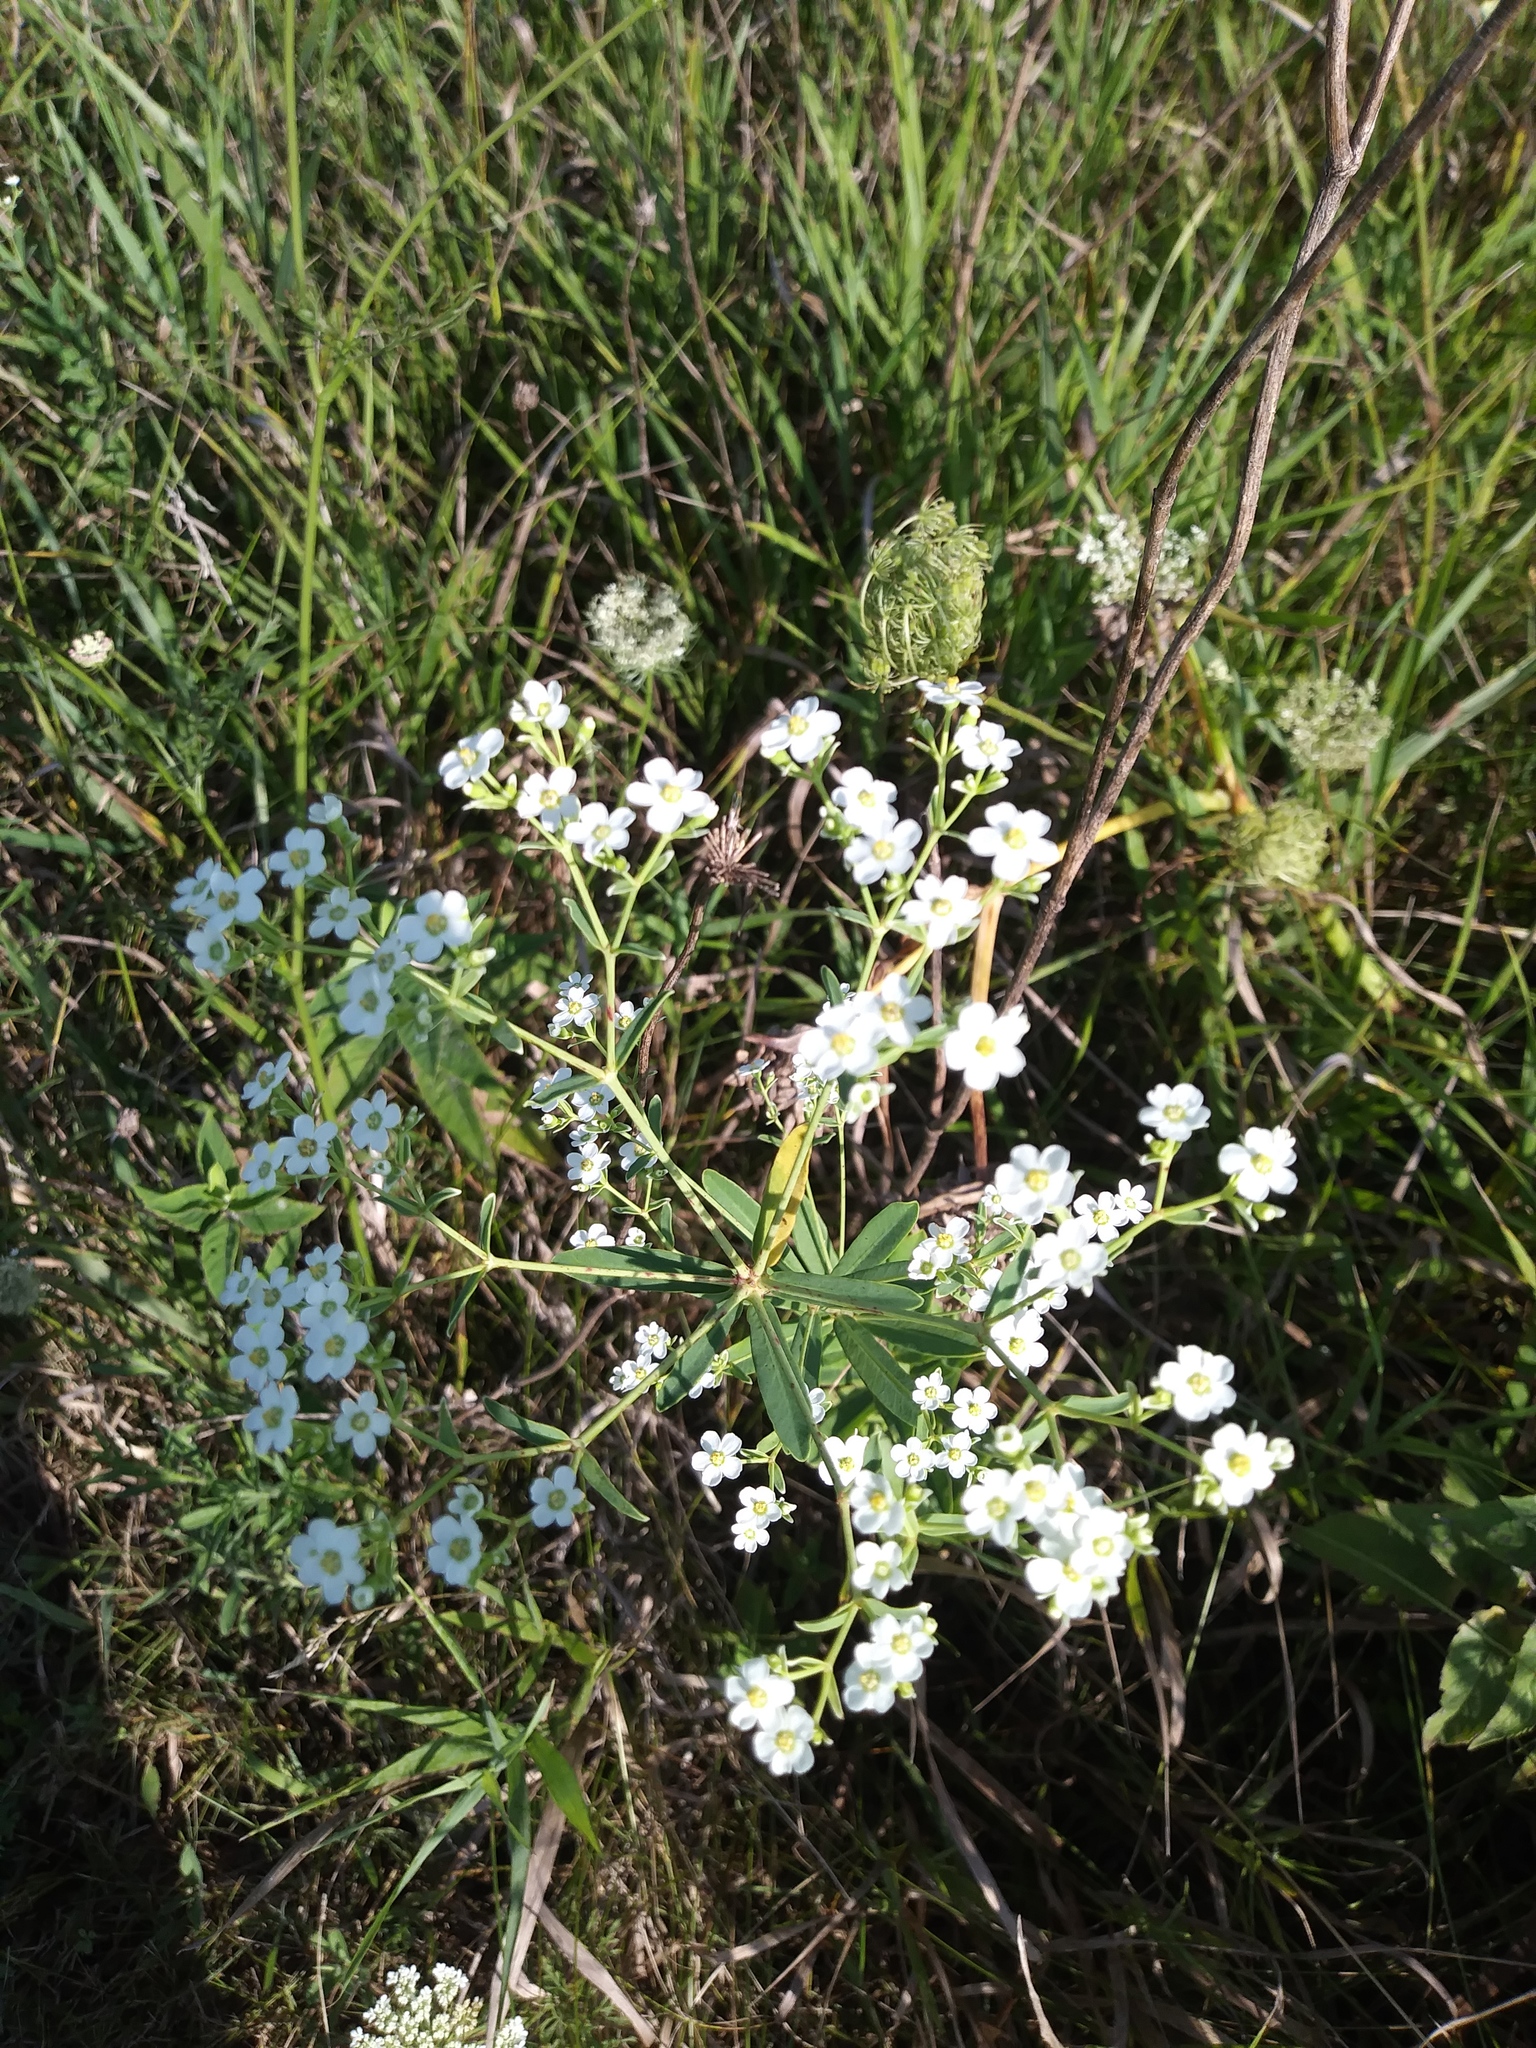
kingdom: Plantae
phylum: Tracheophyta
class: Magnoliopsida
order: Malpighiales
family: Euphorbiaceae
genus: Euphorbia
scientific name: Euphorbia corollata
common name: Flowering spurge
